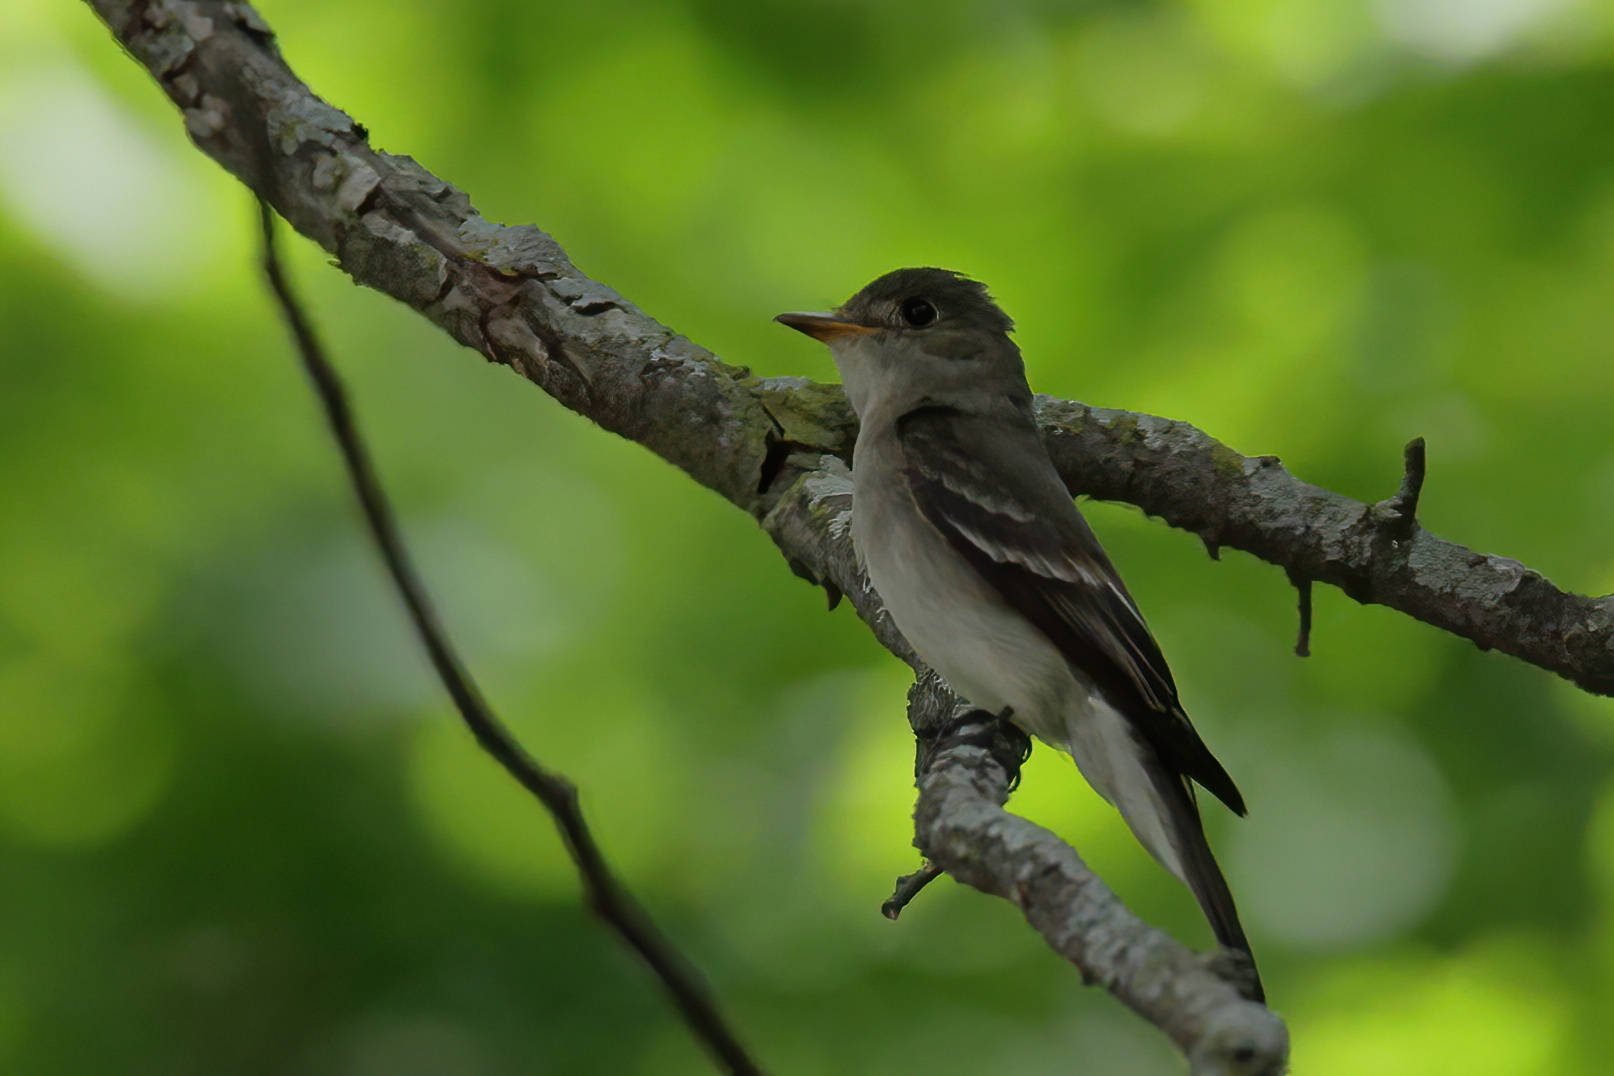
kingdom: Animalia
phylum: Chordata
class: Aves
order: Passeriformes
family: Tyrannidae
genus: Contopus
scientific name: Contopus virens
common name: Eastern wood-pewee
